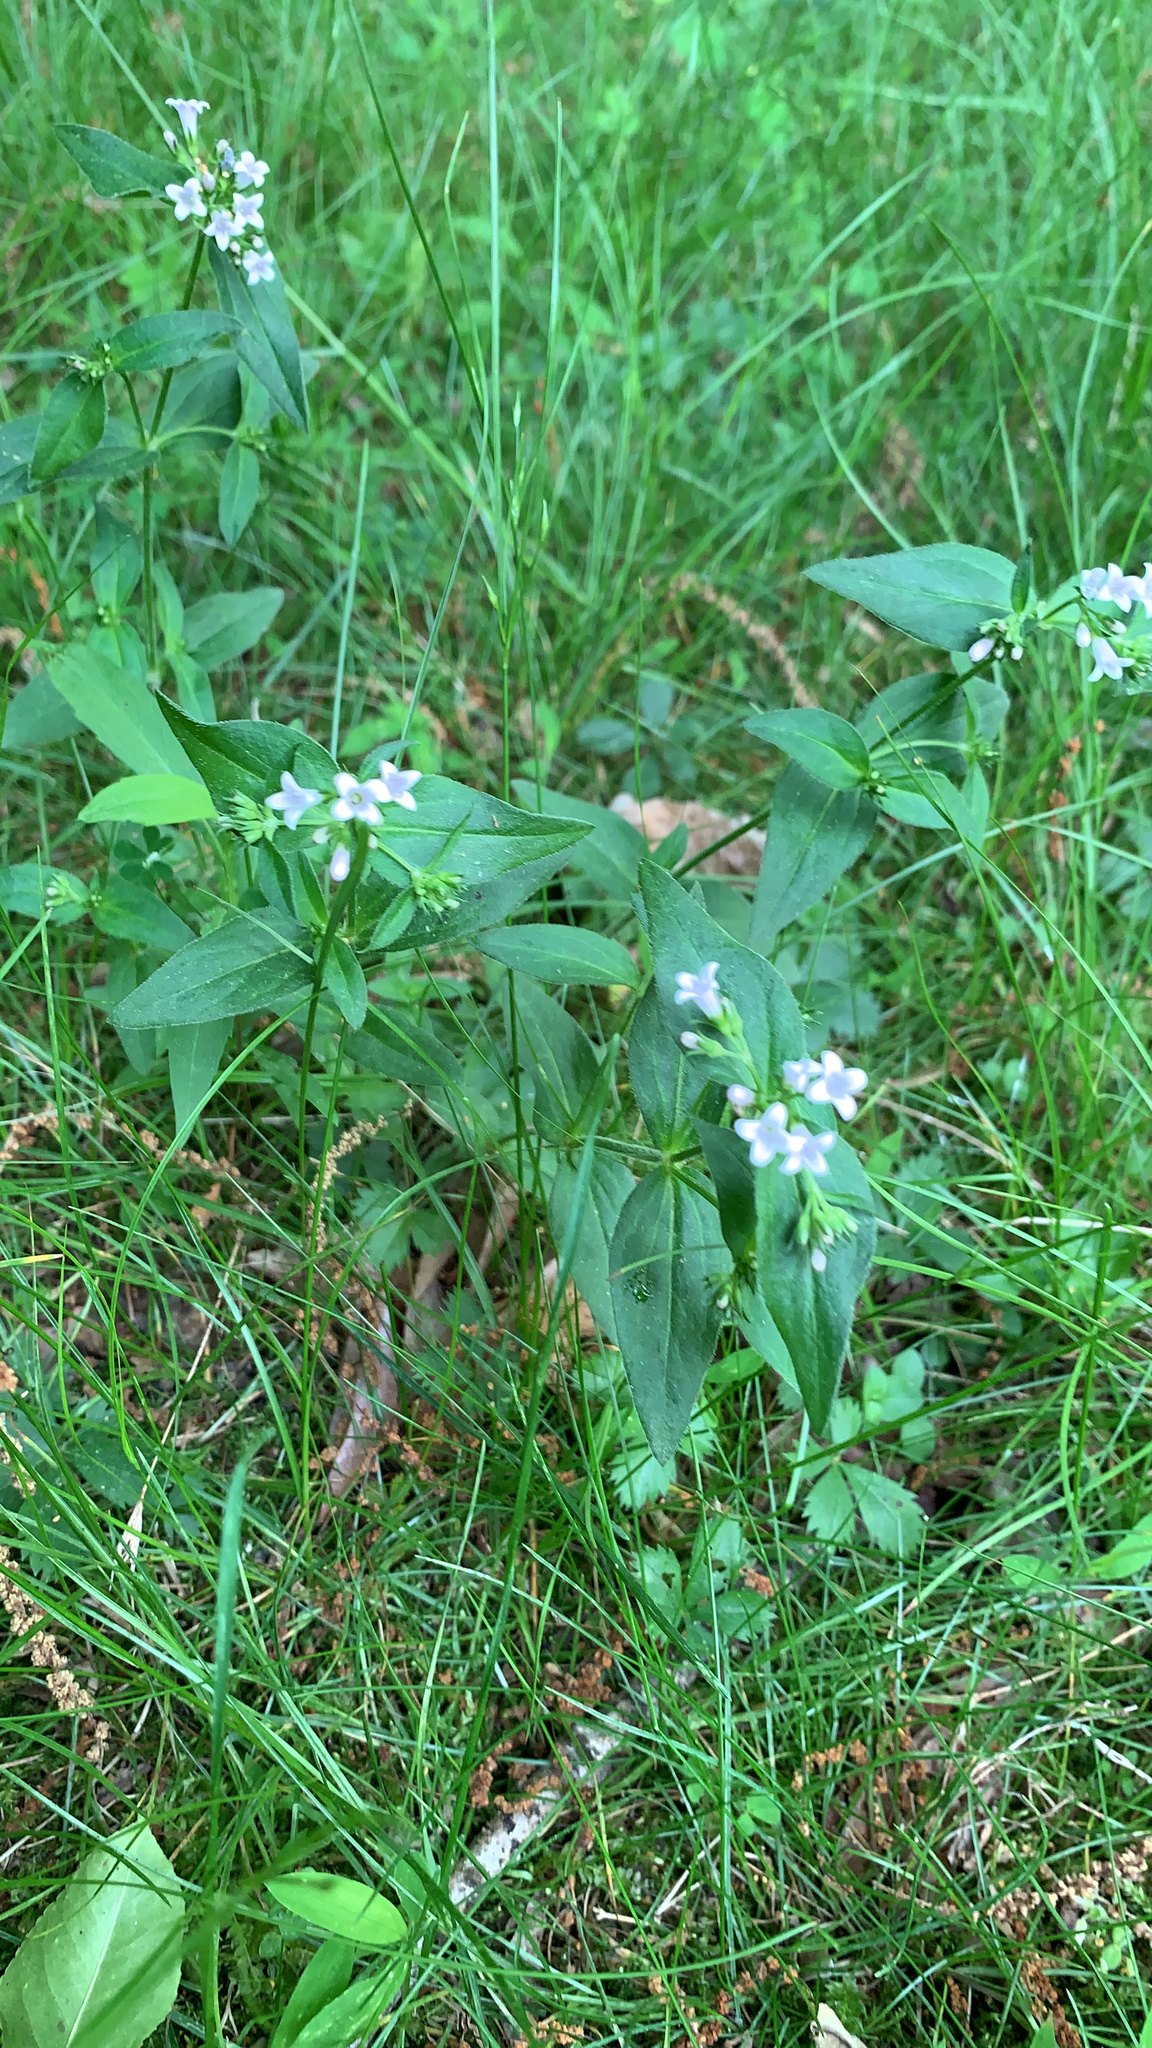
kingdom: Plantae
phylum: Tracheophyta
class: Magnoliopsida
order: Gentianales
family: Rubiaceae
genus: Houstonia
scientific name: Houstonia purpurea
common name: Summer bluet
